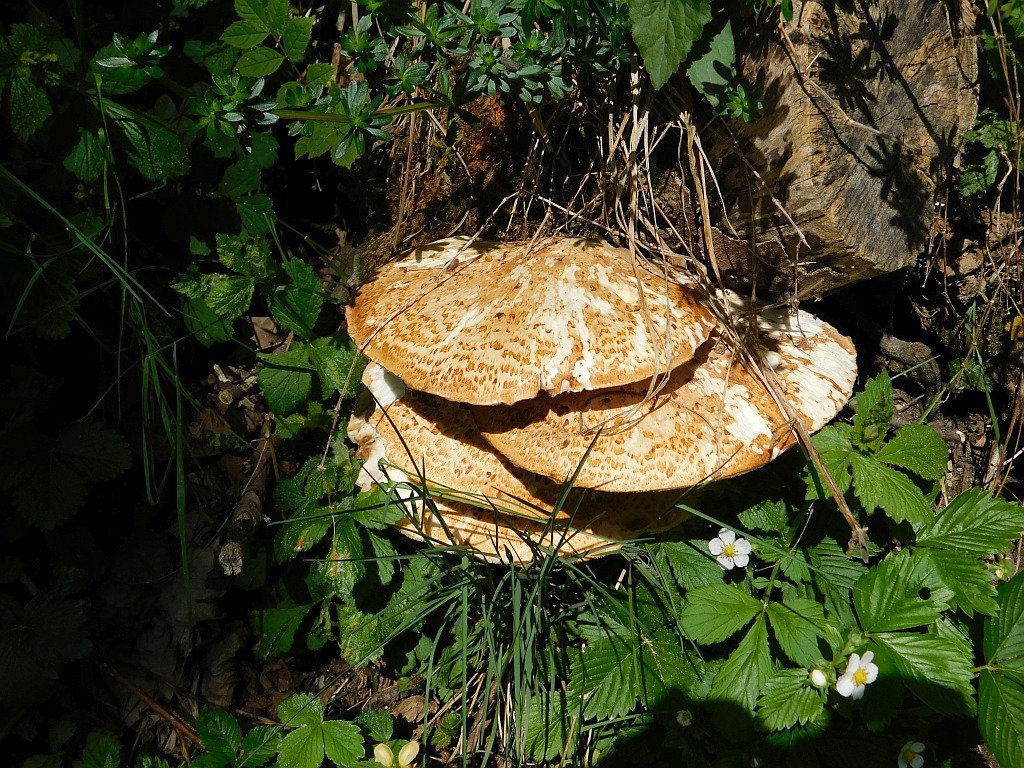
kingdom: Fungi
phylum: Basidiomycota
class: Agaricomycetes
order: Polyporales
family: Polyporaceae
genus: Cerioporus
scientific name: Cerioporus squamosus
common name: Dryad's saddle
